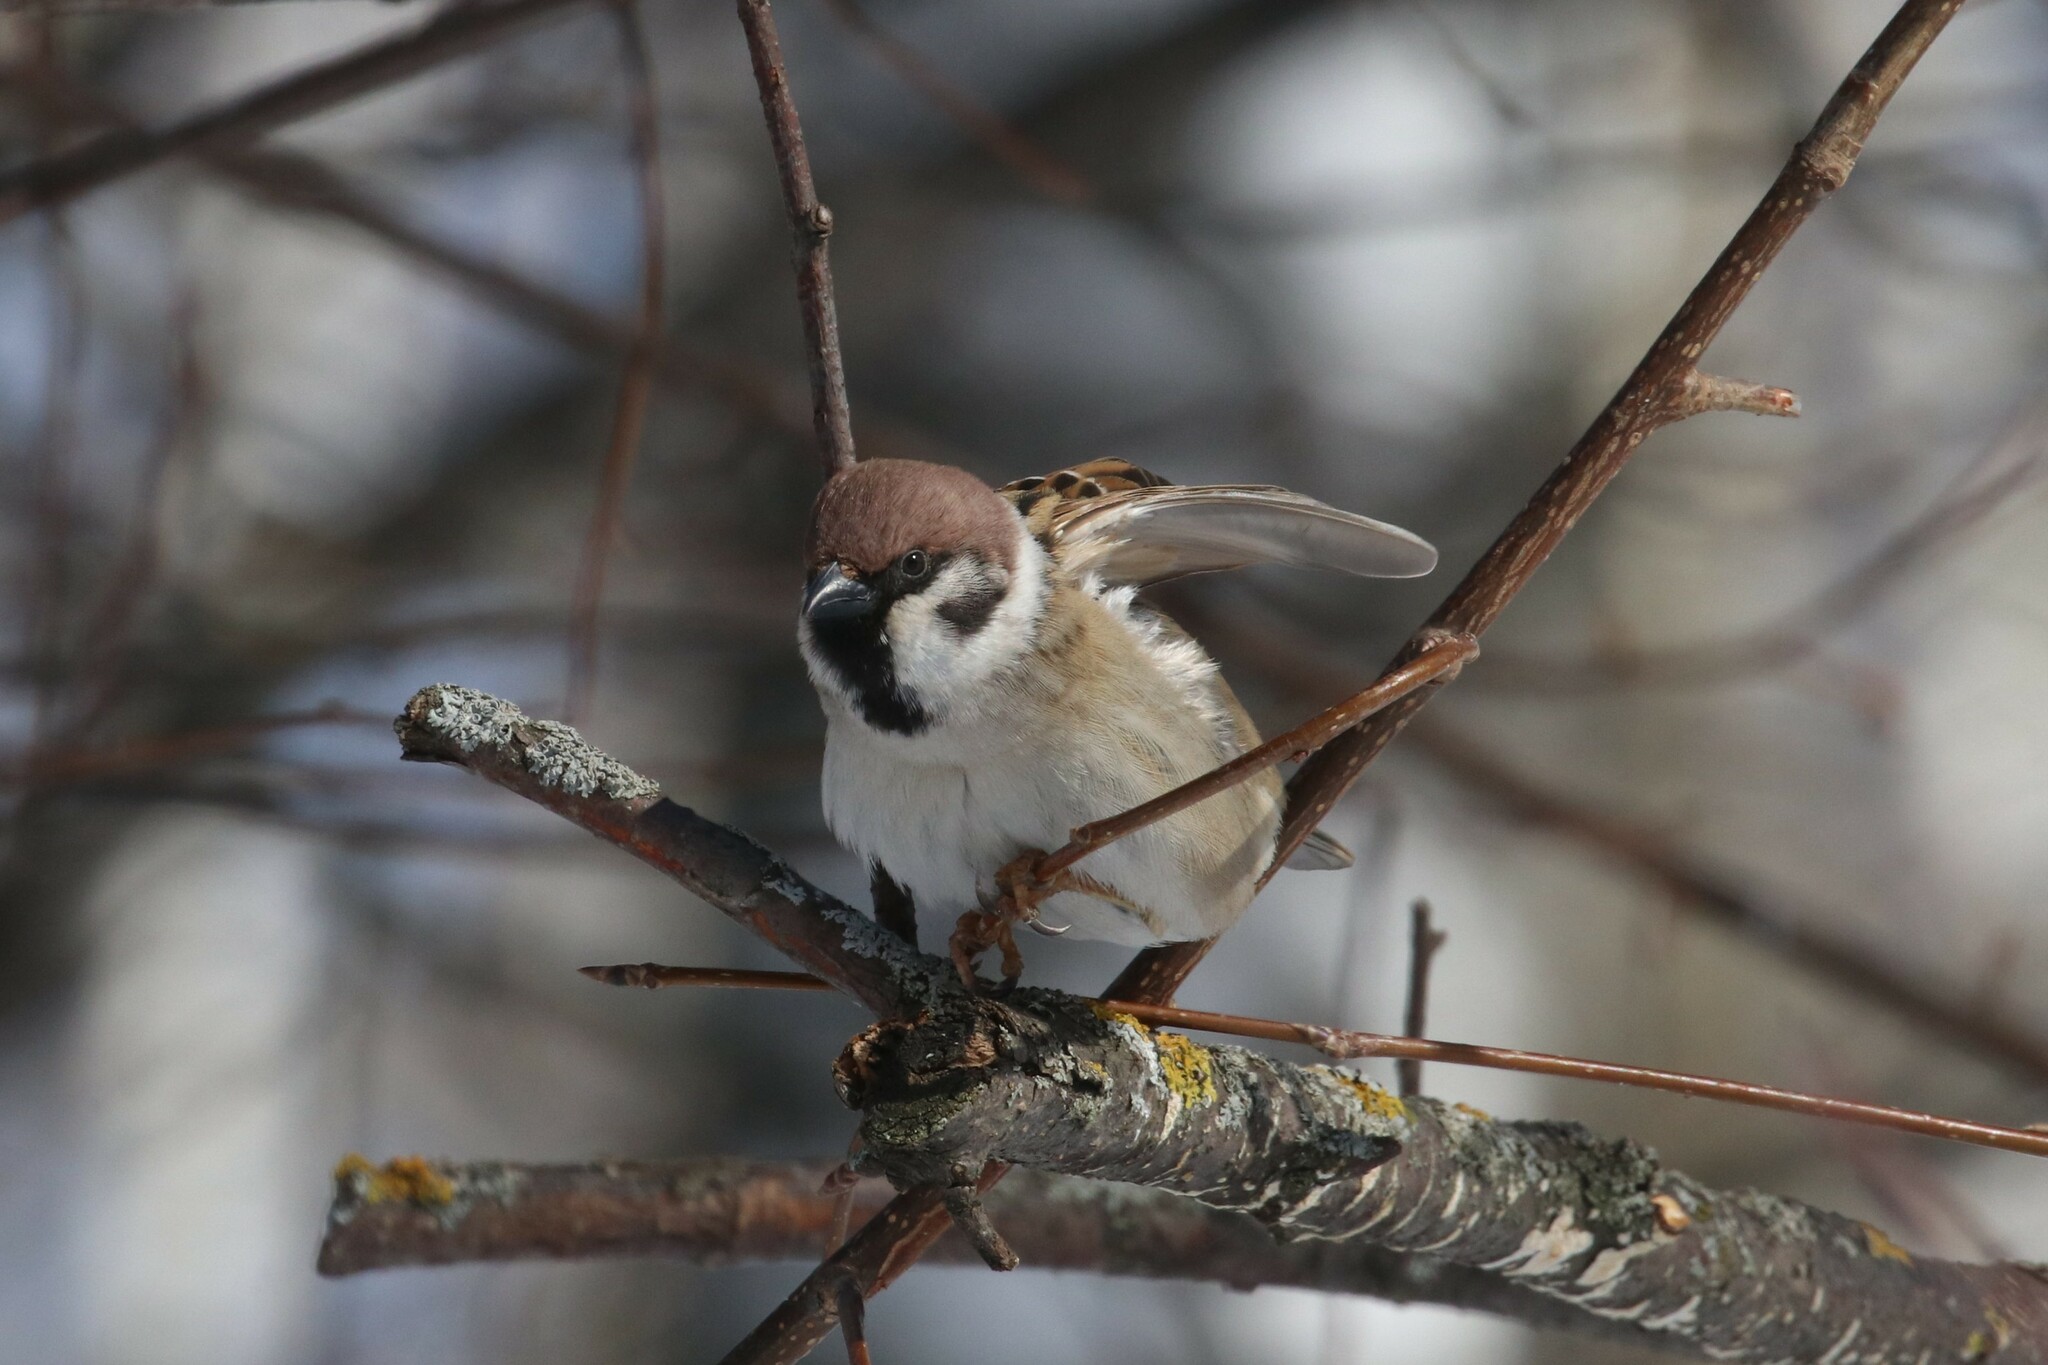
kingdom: Animalia
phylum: Chordata
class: Aves
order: Passeriformes
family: Passeridae
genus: Passer
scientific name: Passer montanus
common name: Eurasian tree sparrow
